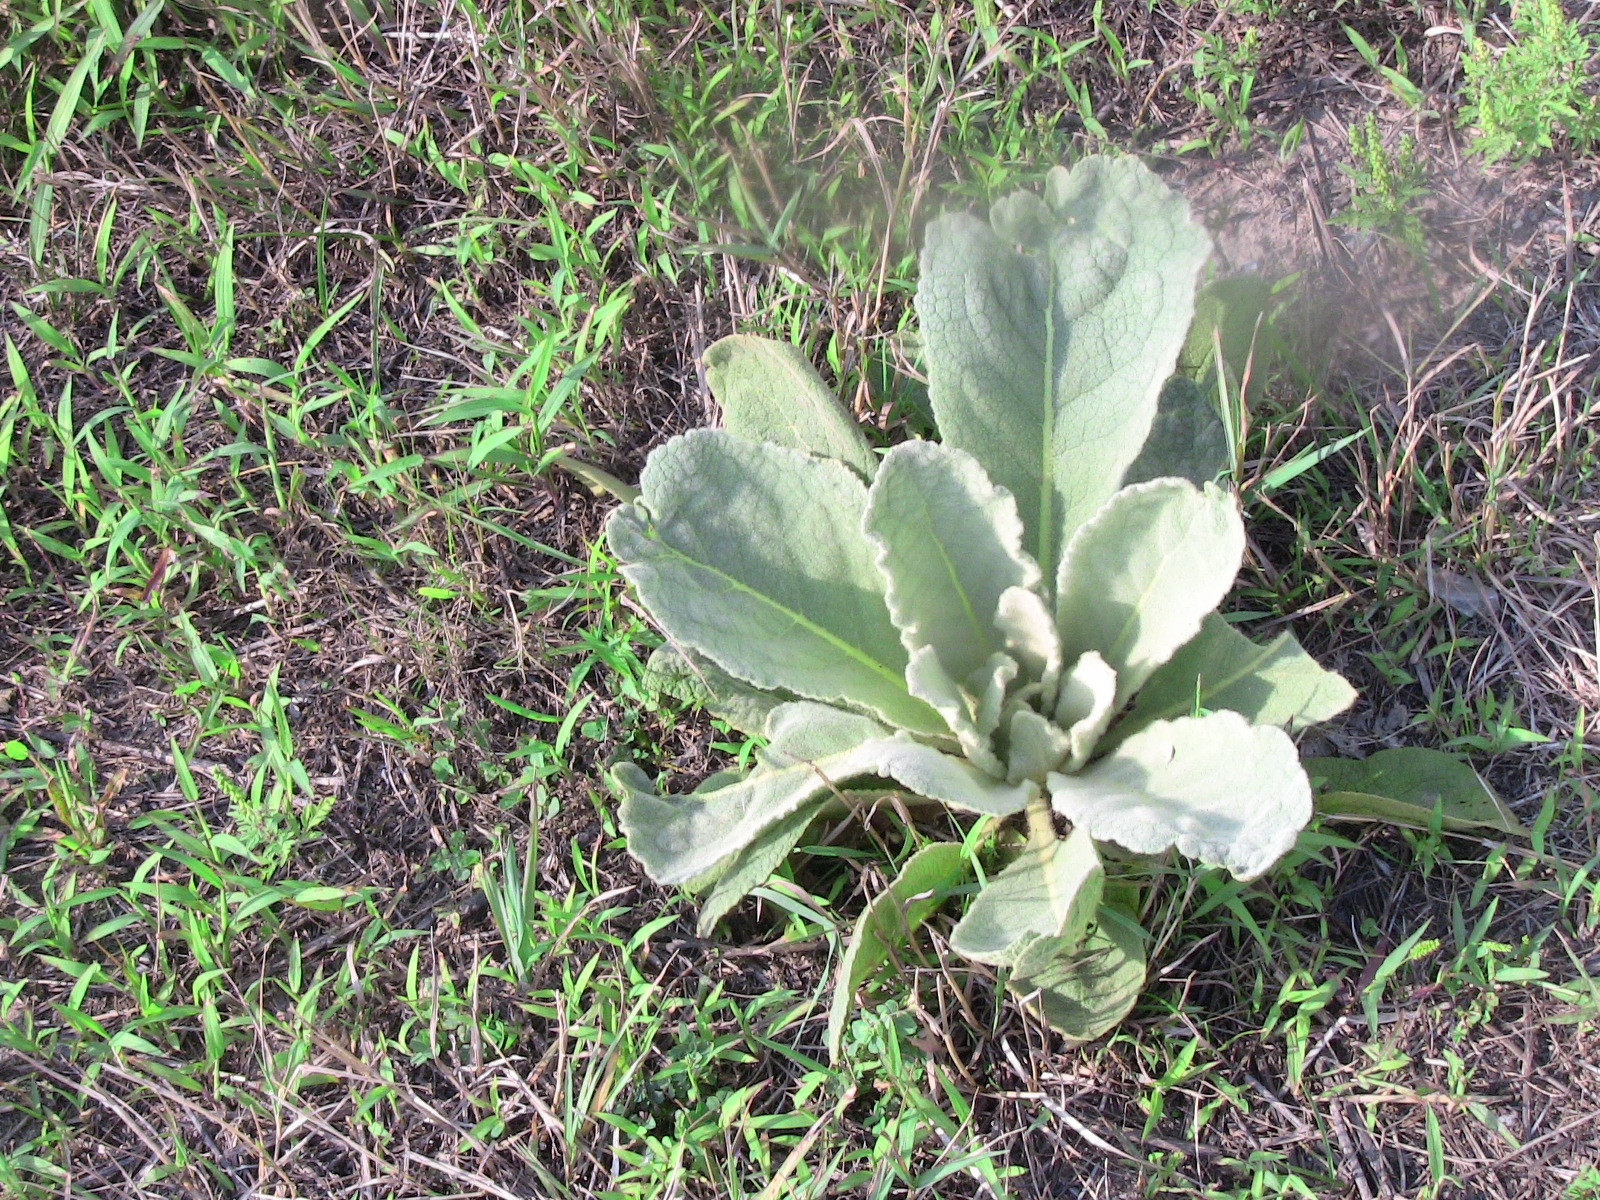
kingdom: Plantae
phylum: Tracheophyta
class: Magnoliopsida
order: Lamiales
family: Scrophulariaceae
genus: Verbascum
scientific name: Verbascum thapsus
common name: Common mullein
